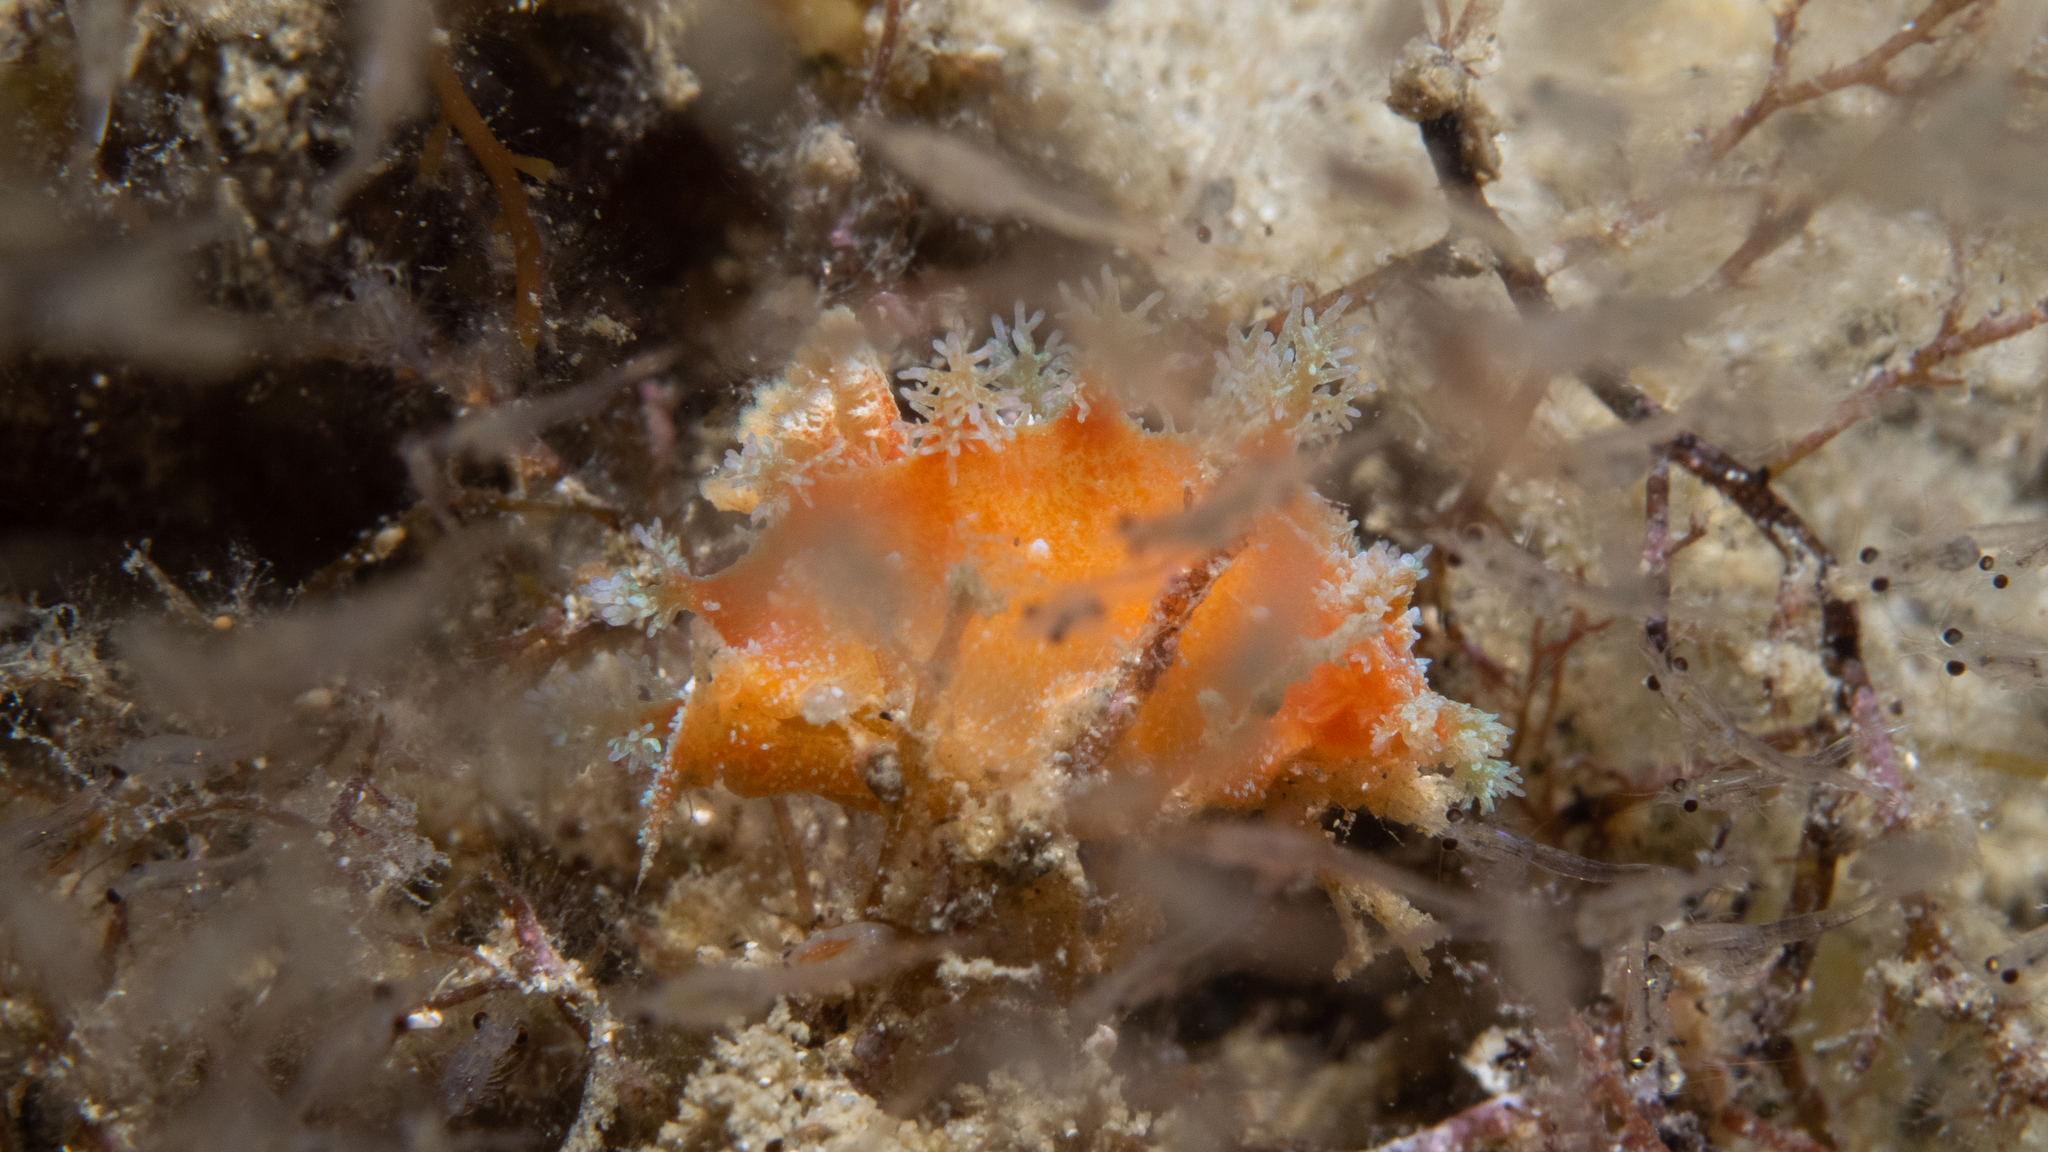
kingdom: Animalia
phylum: Mollusca
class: Gastropoda
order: Nudibranchia
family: Polyceridae
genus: Kaloplocamus
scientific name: Kaloplocamus ramosus
